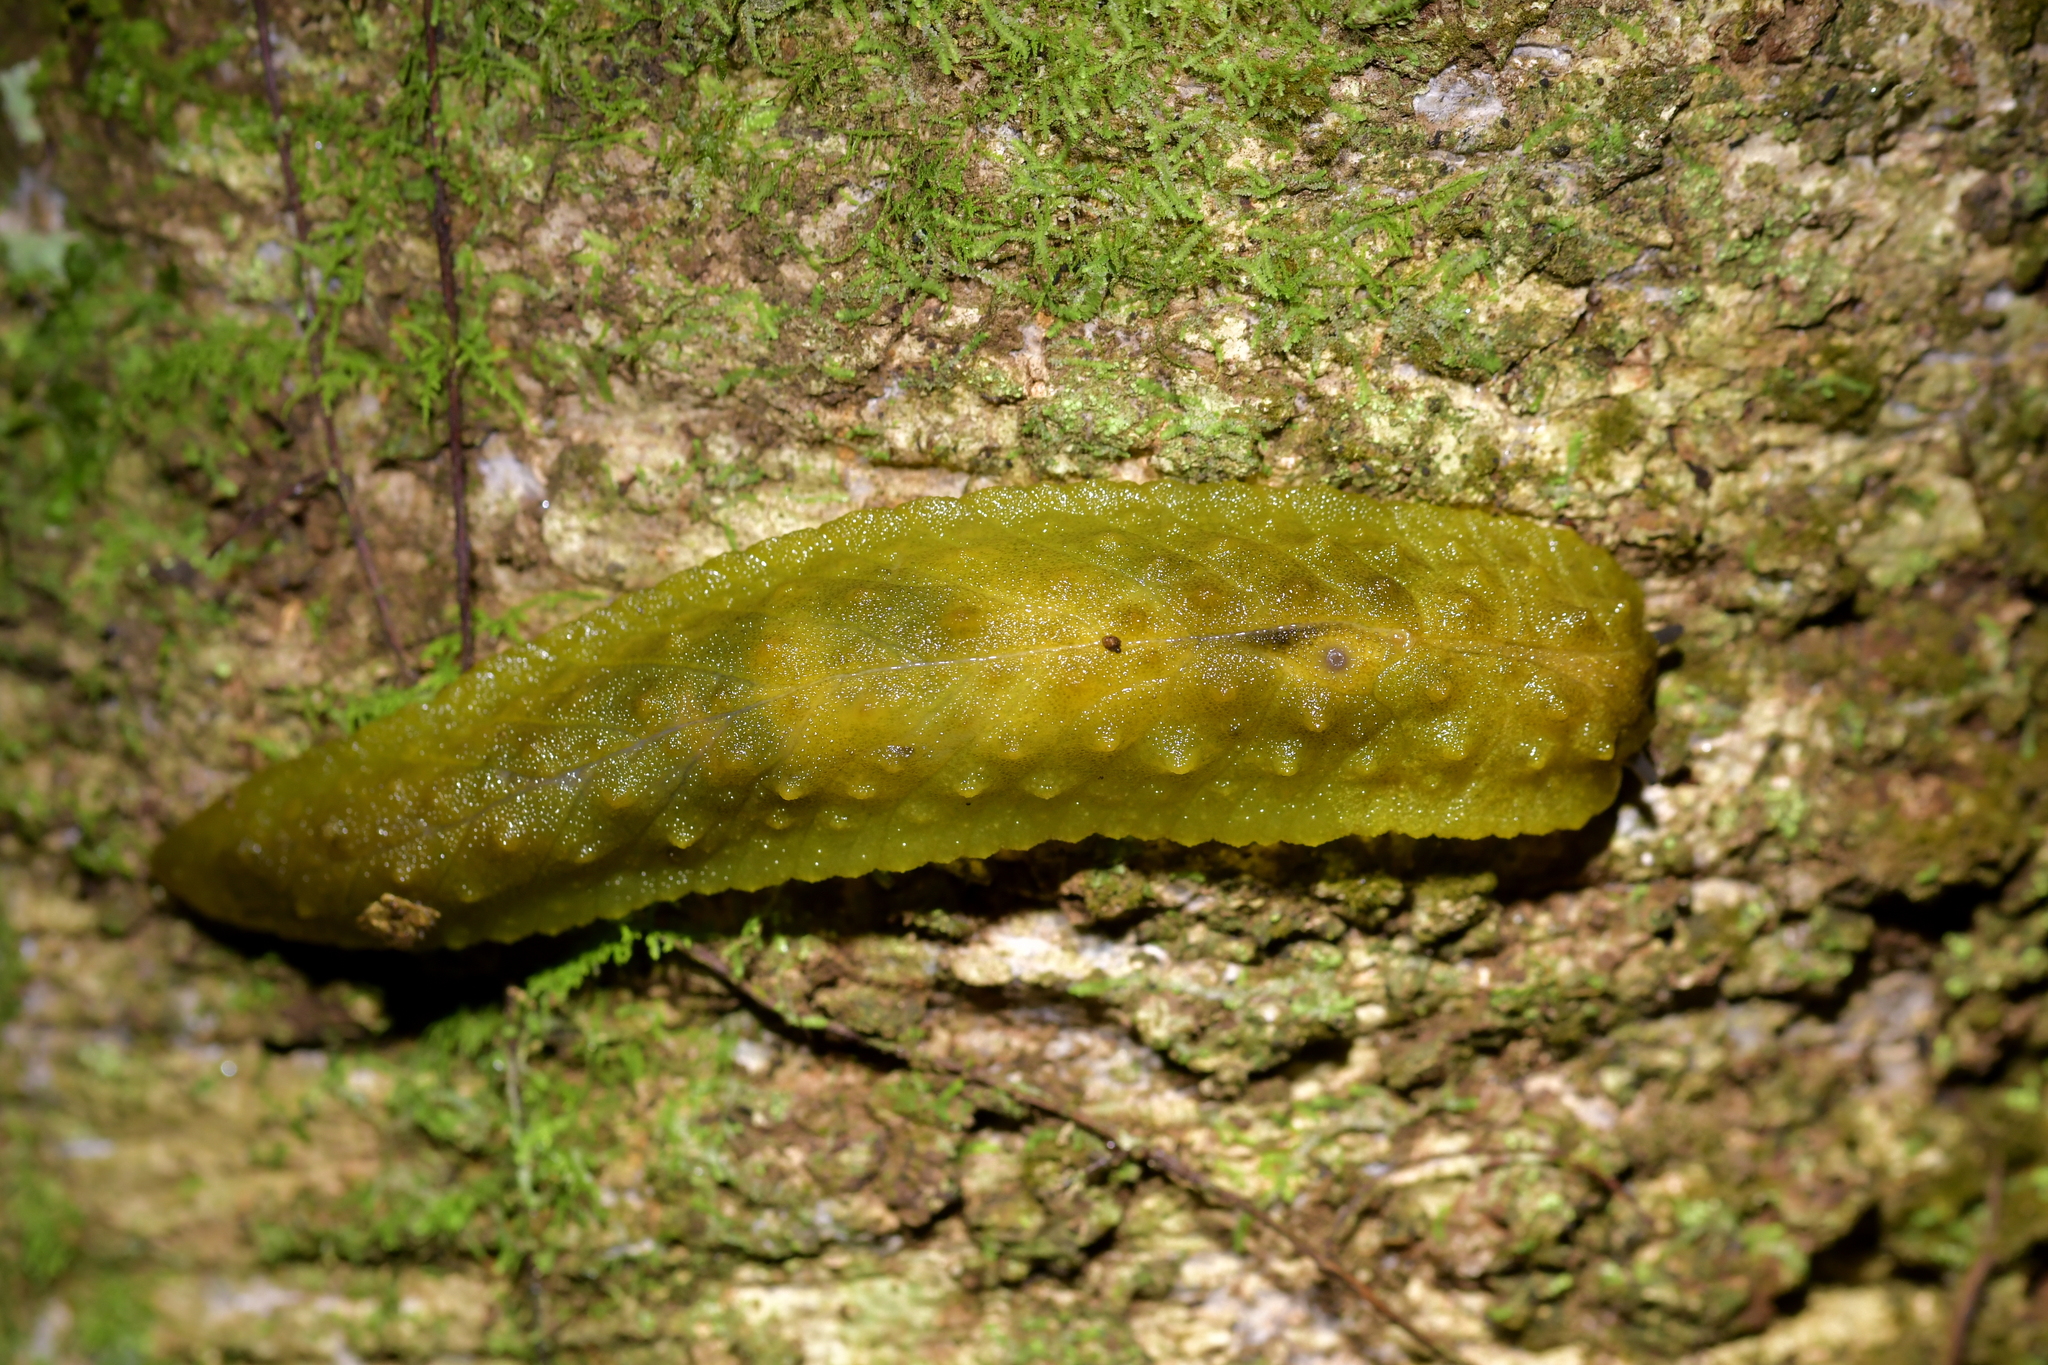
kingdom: Animalia
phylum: Mollusca
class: Gastropoda
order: Stylommatophora
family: Athoracophoridae
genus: Athoracophorus
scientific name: Athoracophorus papillatus
